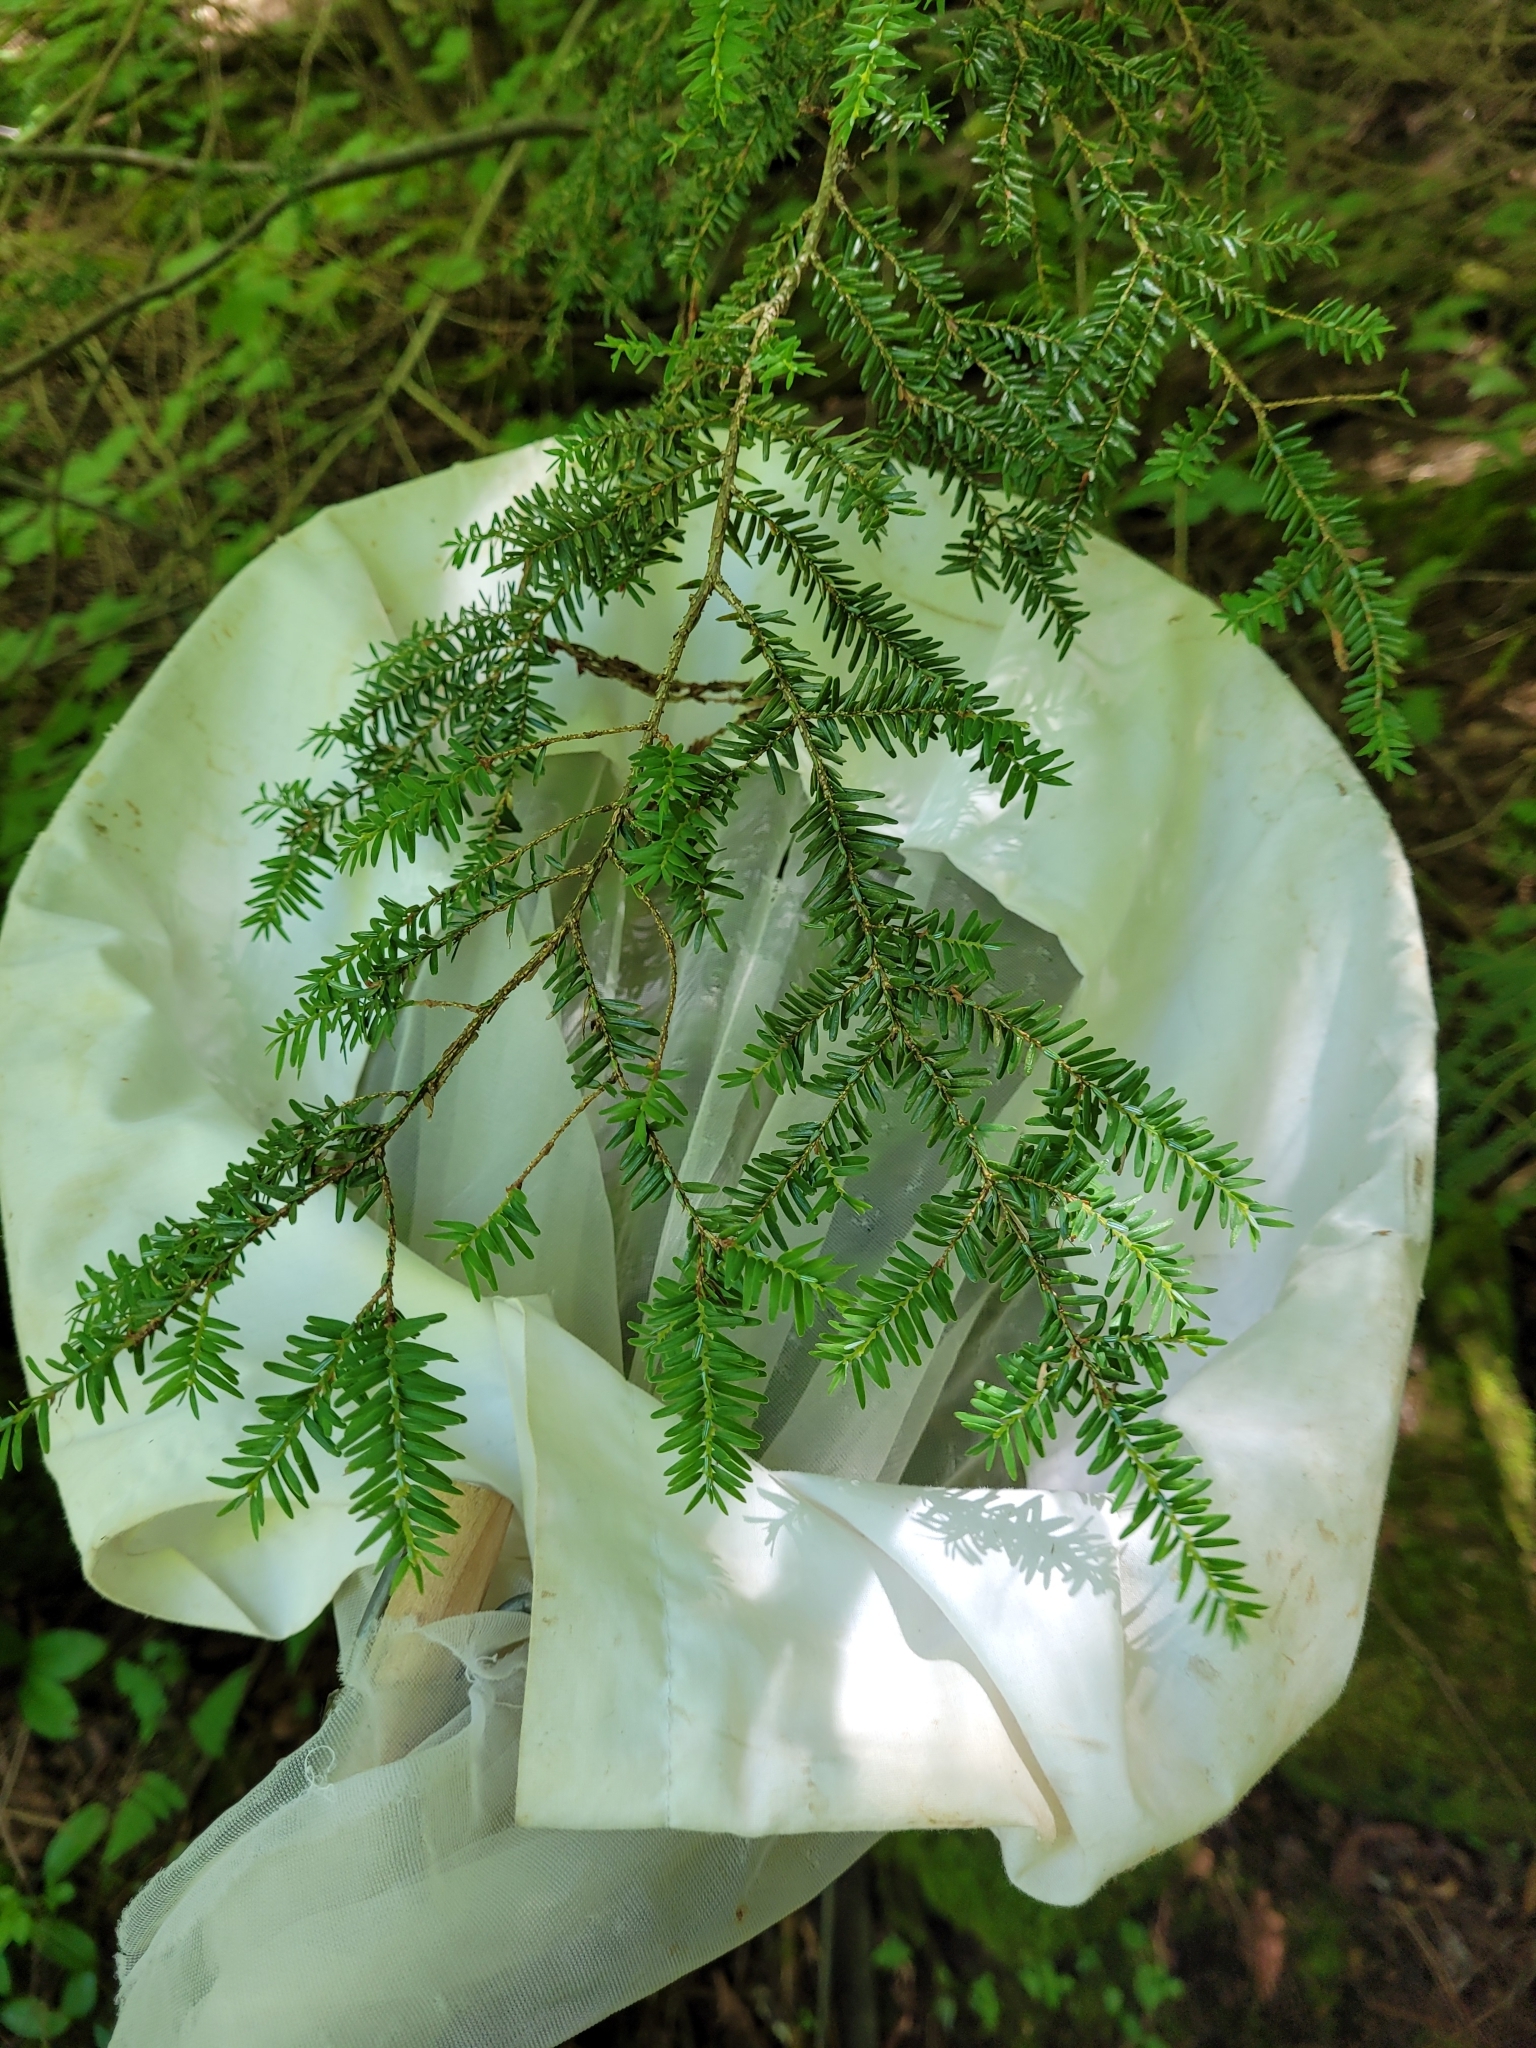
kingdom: Plantae
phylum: Tracheophyta
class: Pinopsida
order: Pinales
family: Pinaceae
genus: Tsuga
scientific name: Tsuga canadensis
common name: Eastern hemlock
